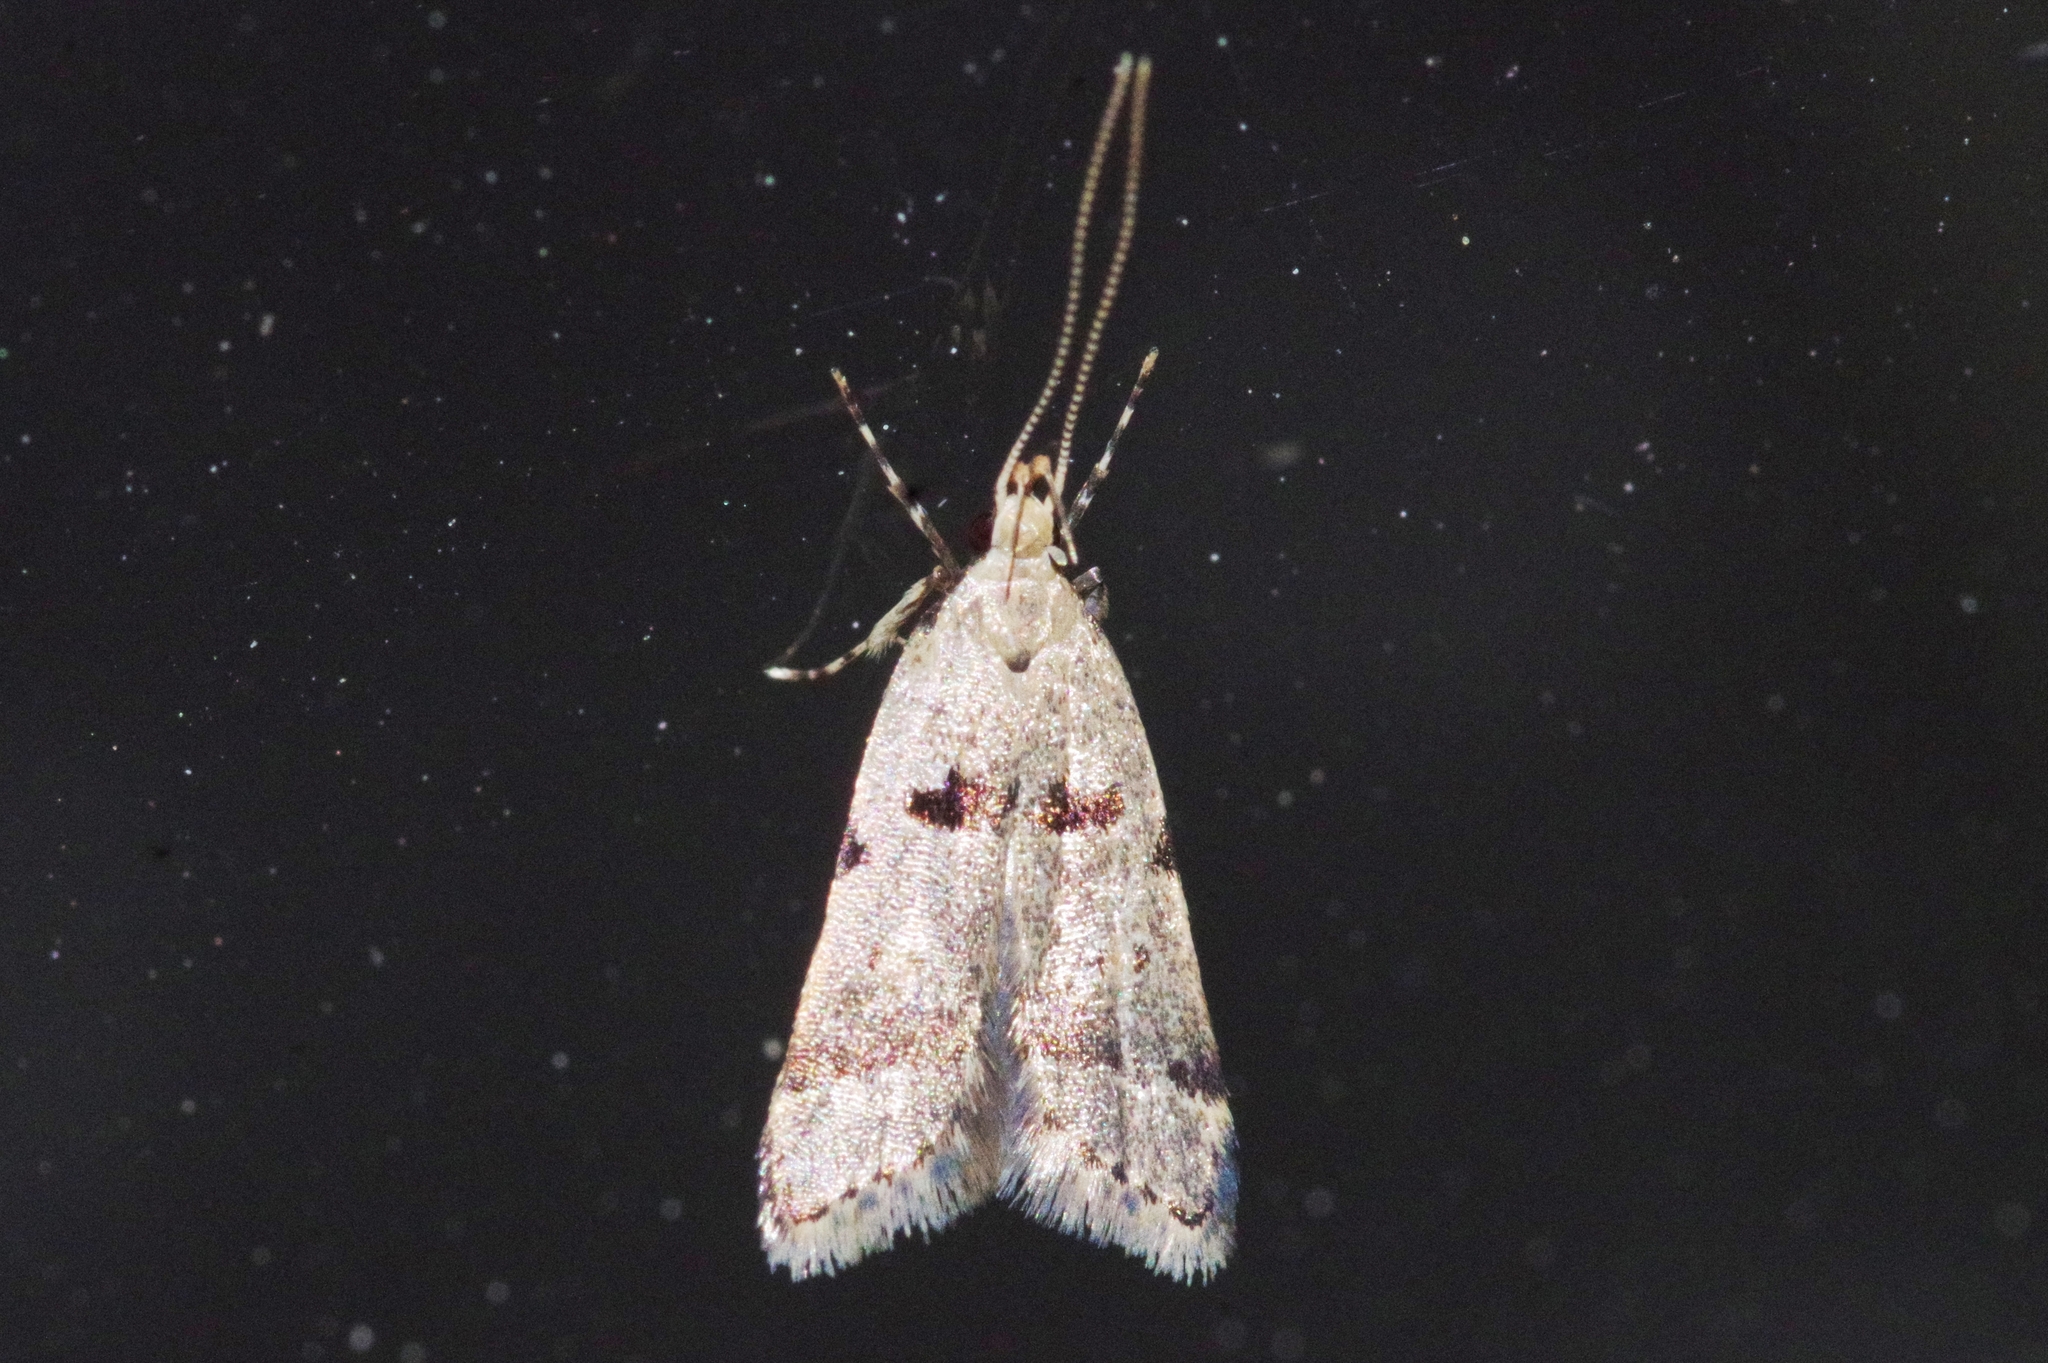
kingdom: Animalia
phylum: Arthropoda
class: Insecta
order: Lepidoptera
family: Lecithoceridae
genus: Deltoplastis
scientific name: Deltoplastis apostatis
